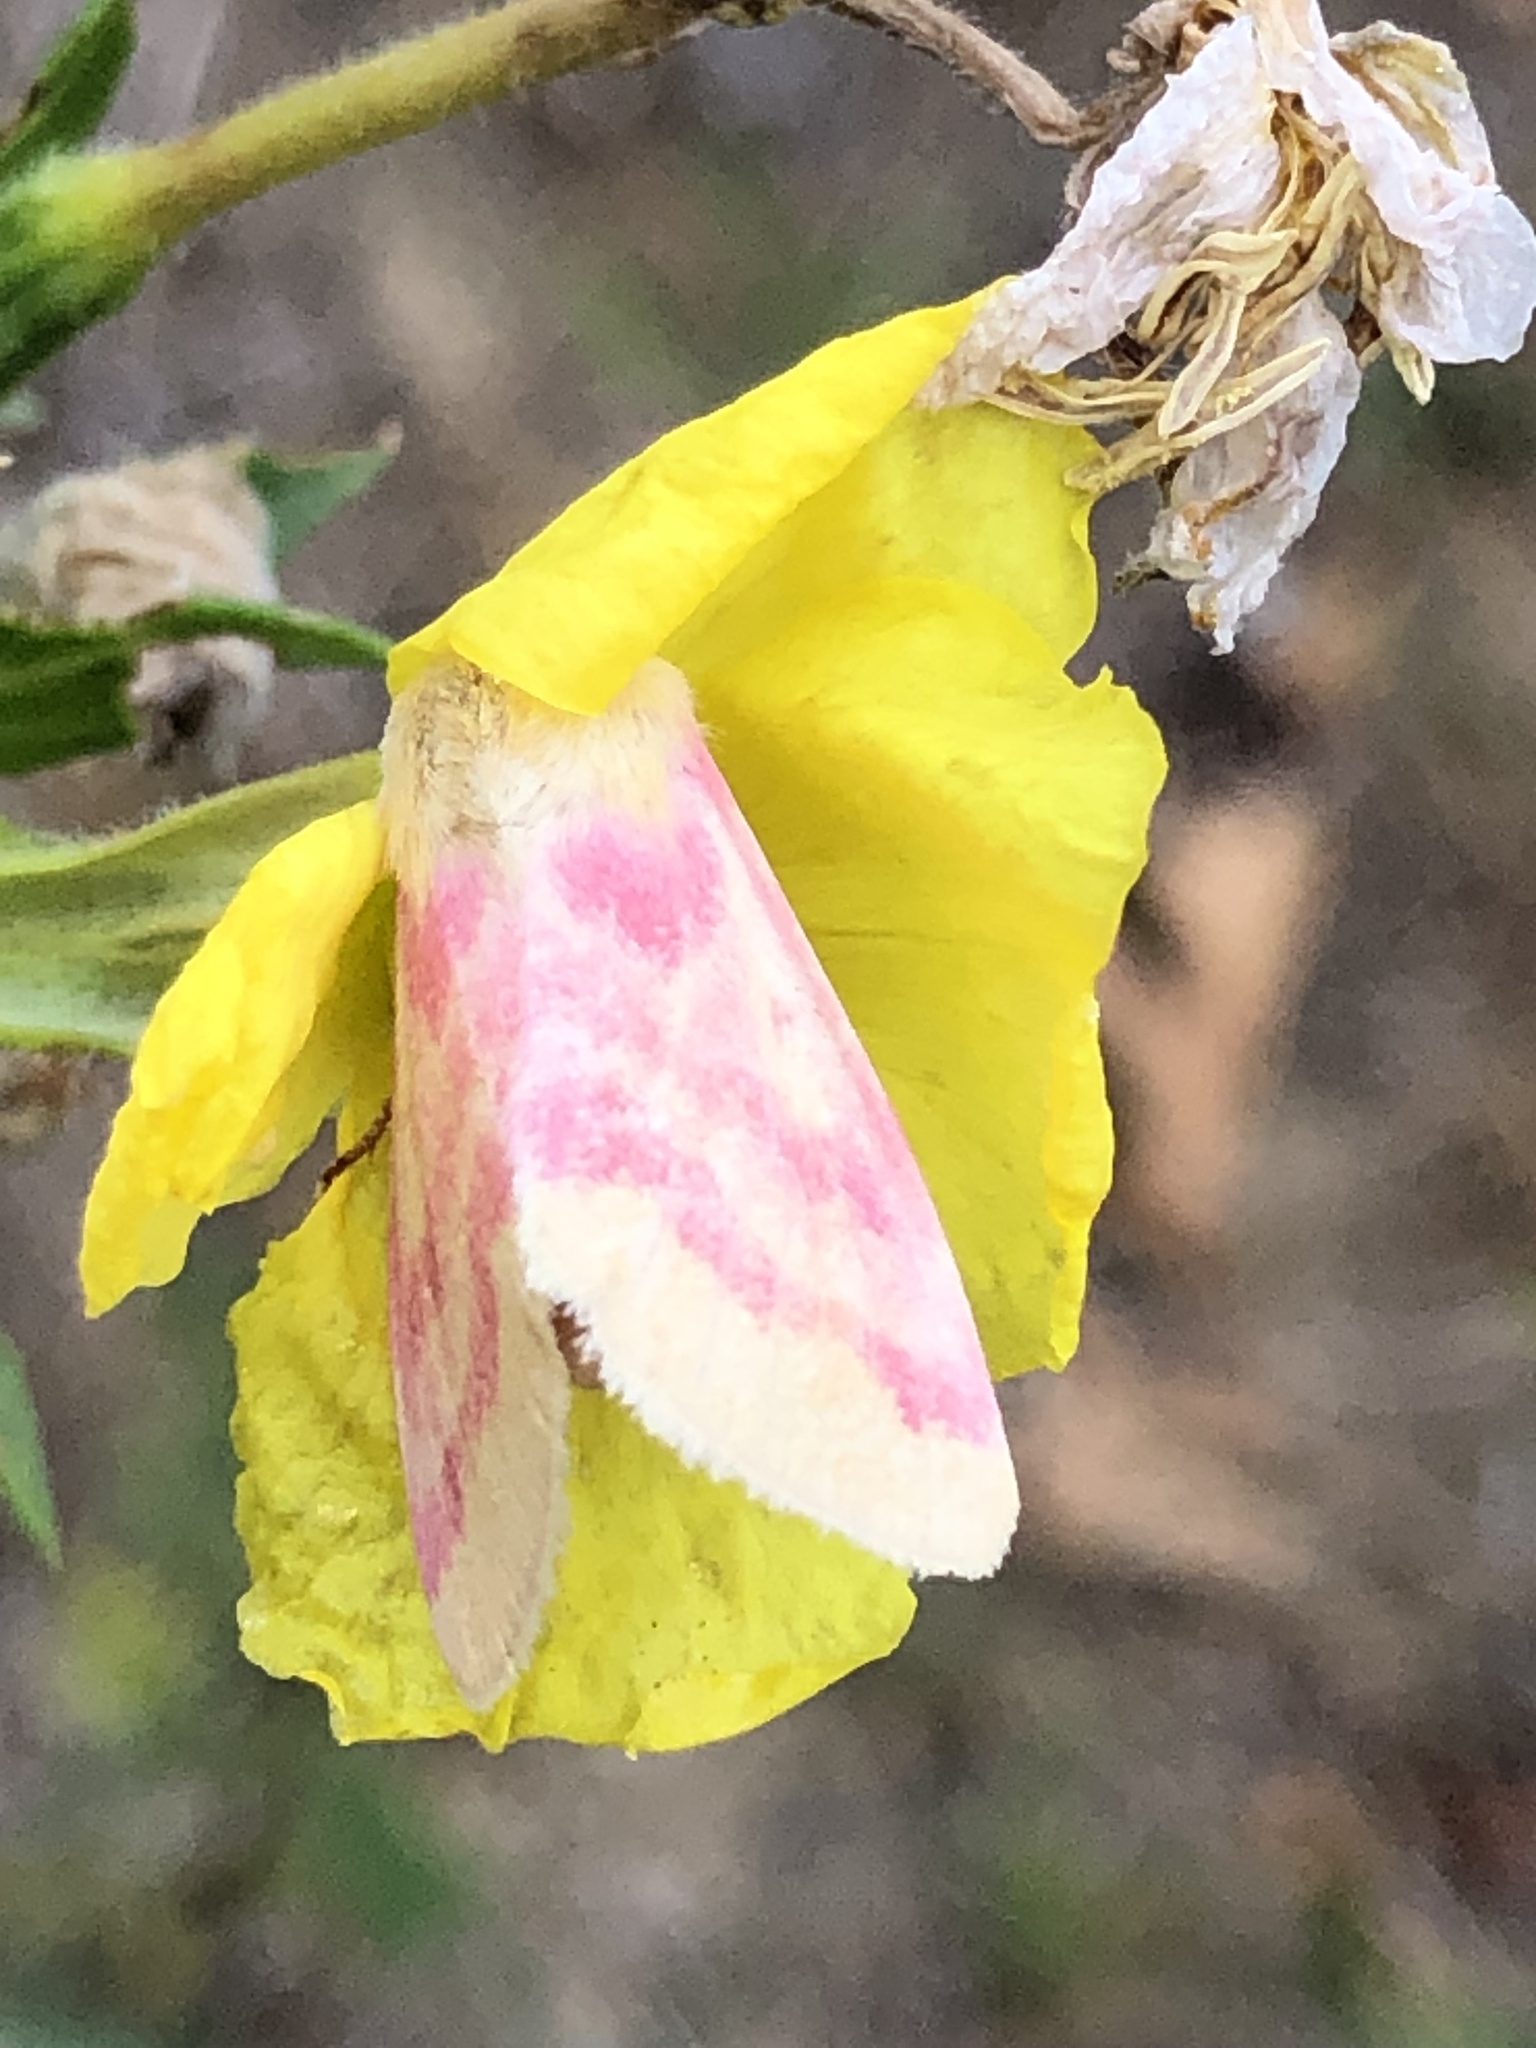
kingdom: Animalia
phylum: Arthropoda
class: Insecta
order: Lepidoptera
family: Noctuidae
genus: Schinia
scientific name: Schinia florida
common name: Primrose moth
